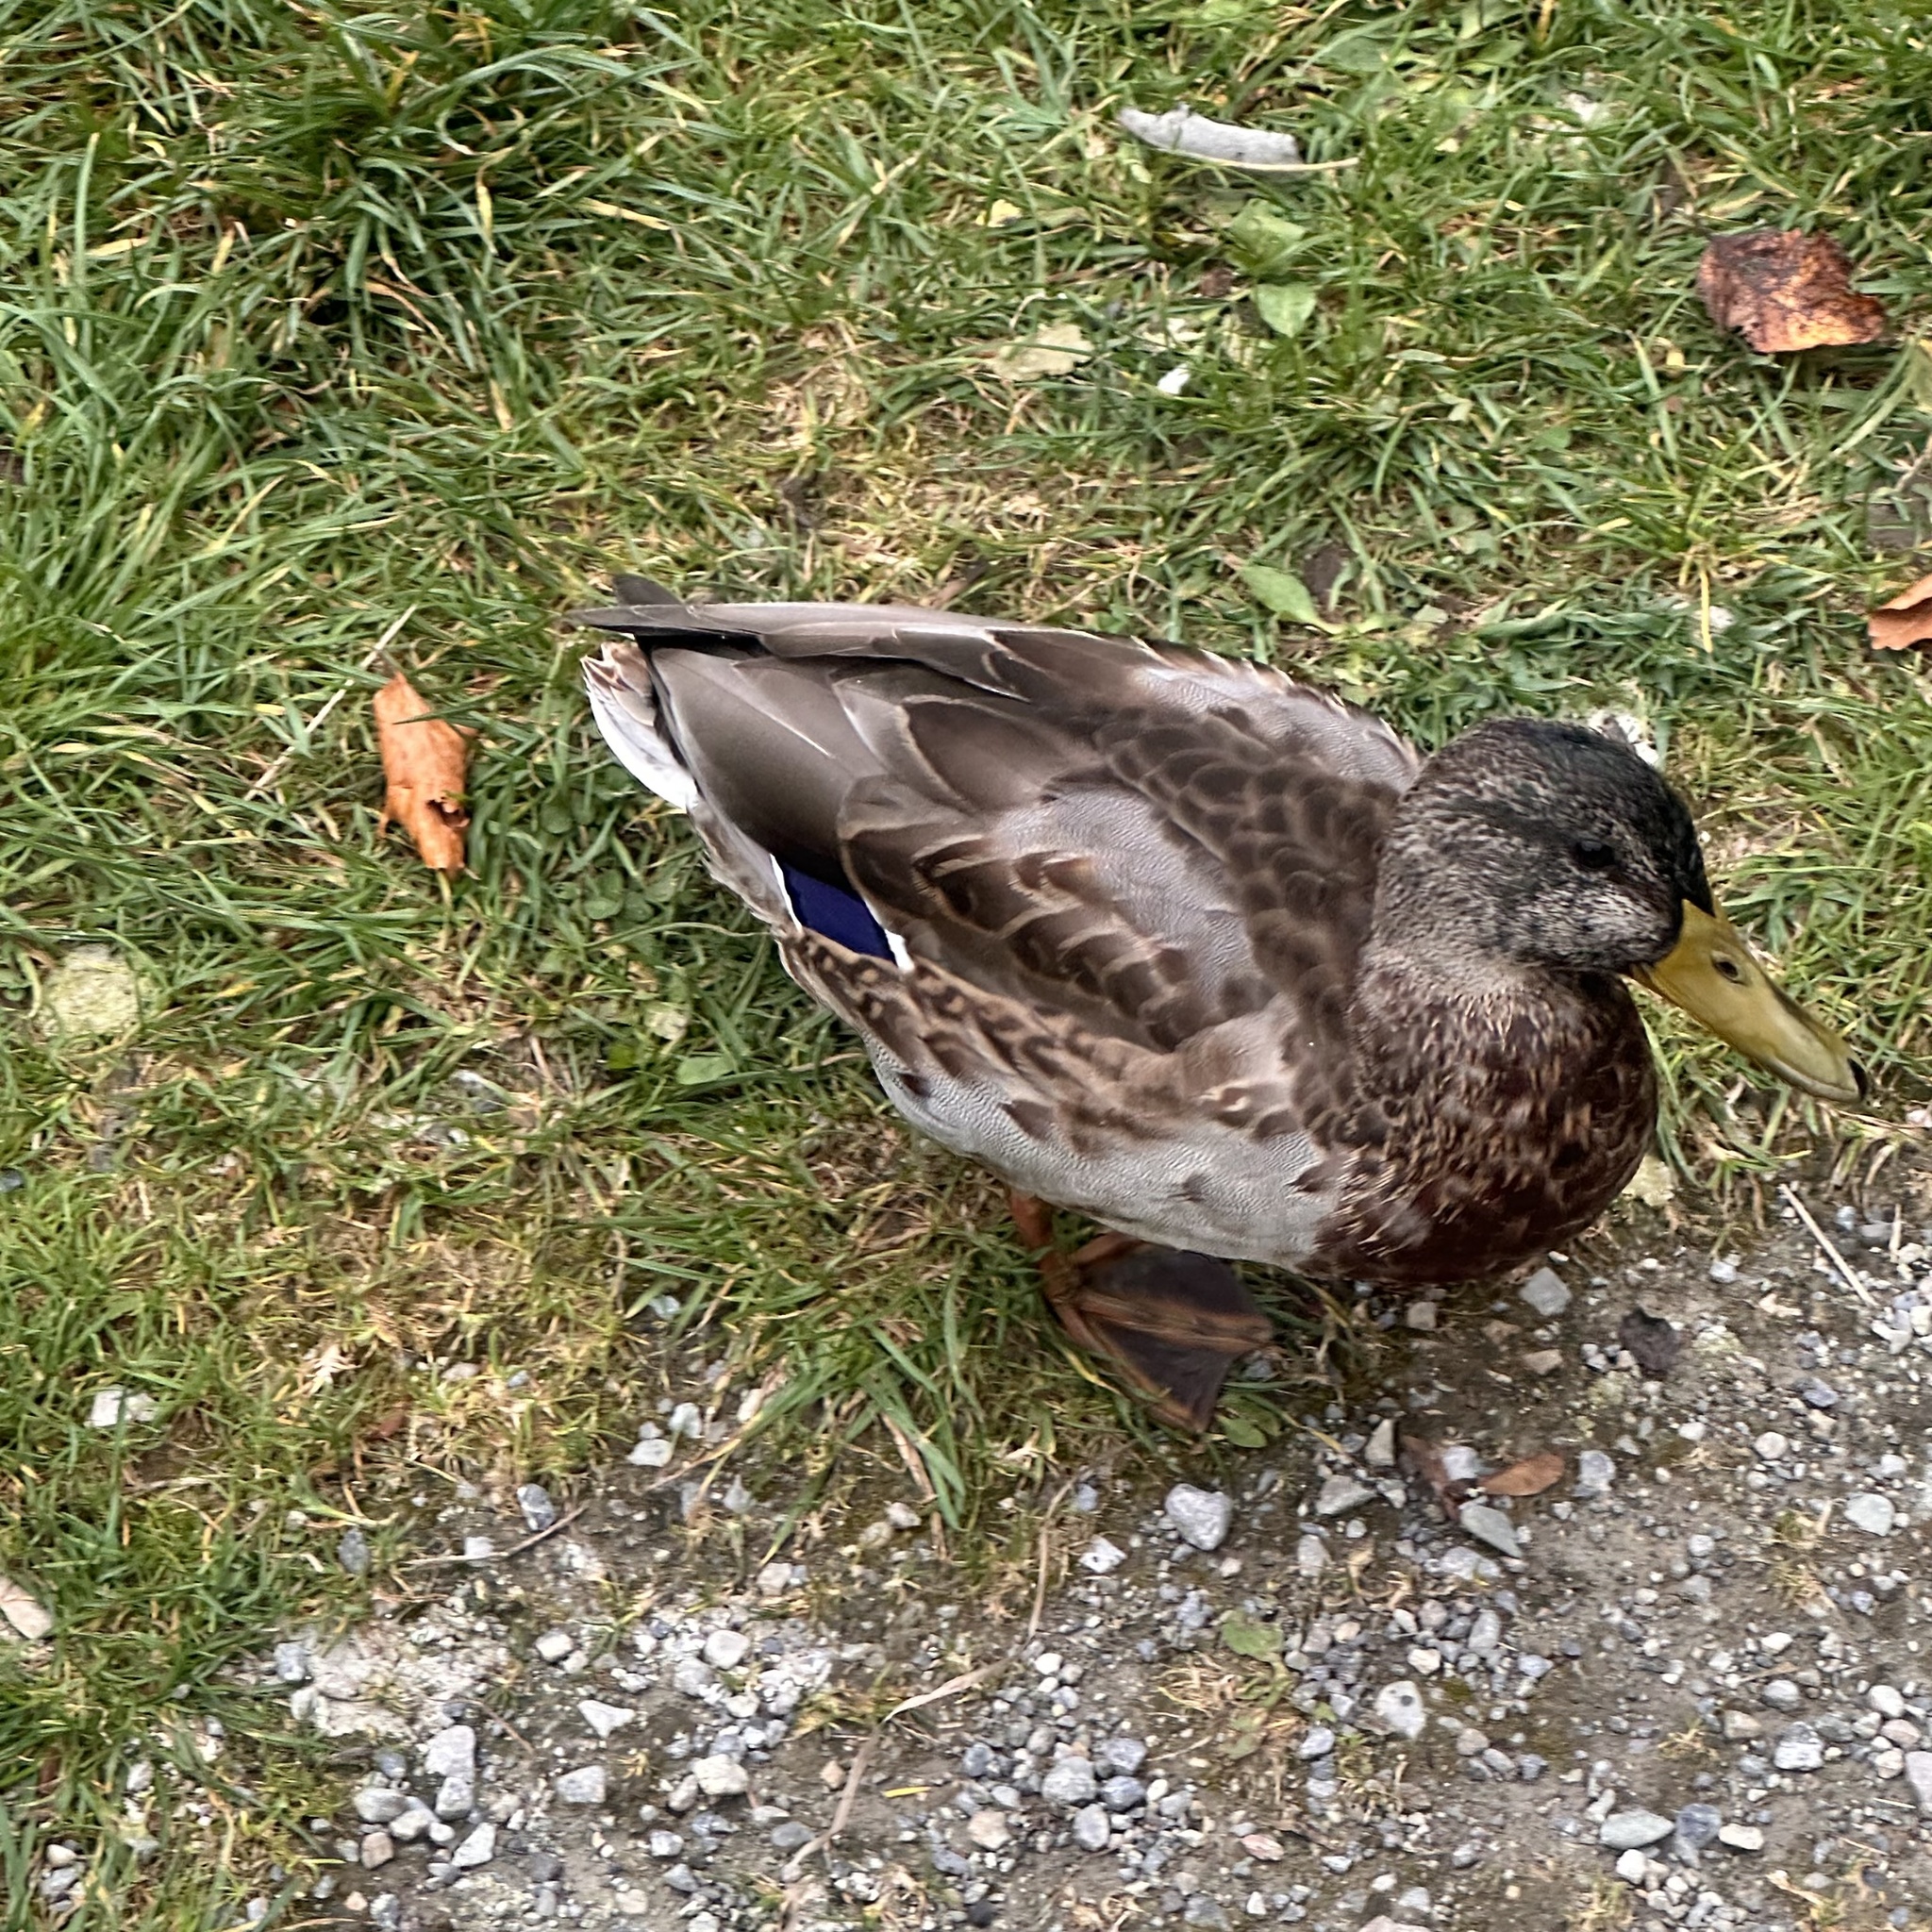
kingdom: Animalia
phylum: Chordata
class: Aves
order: Anseriformes
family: Anatidae
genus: Anas
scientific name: Anas platyrhynchos
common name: Mallard
